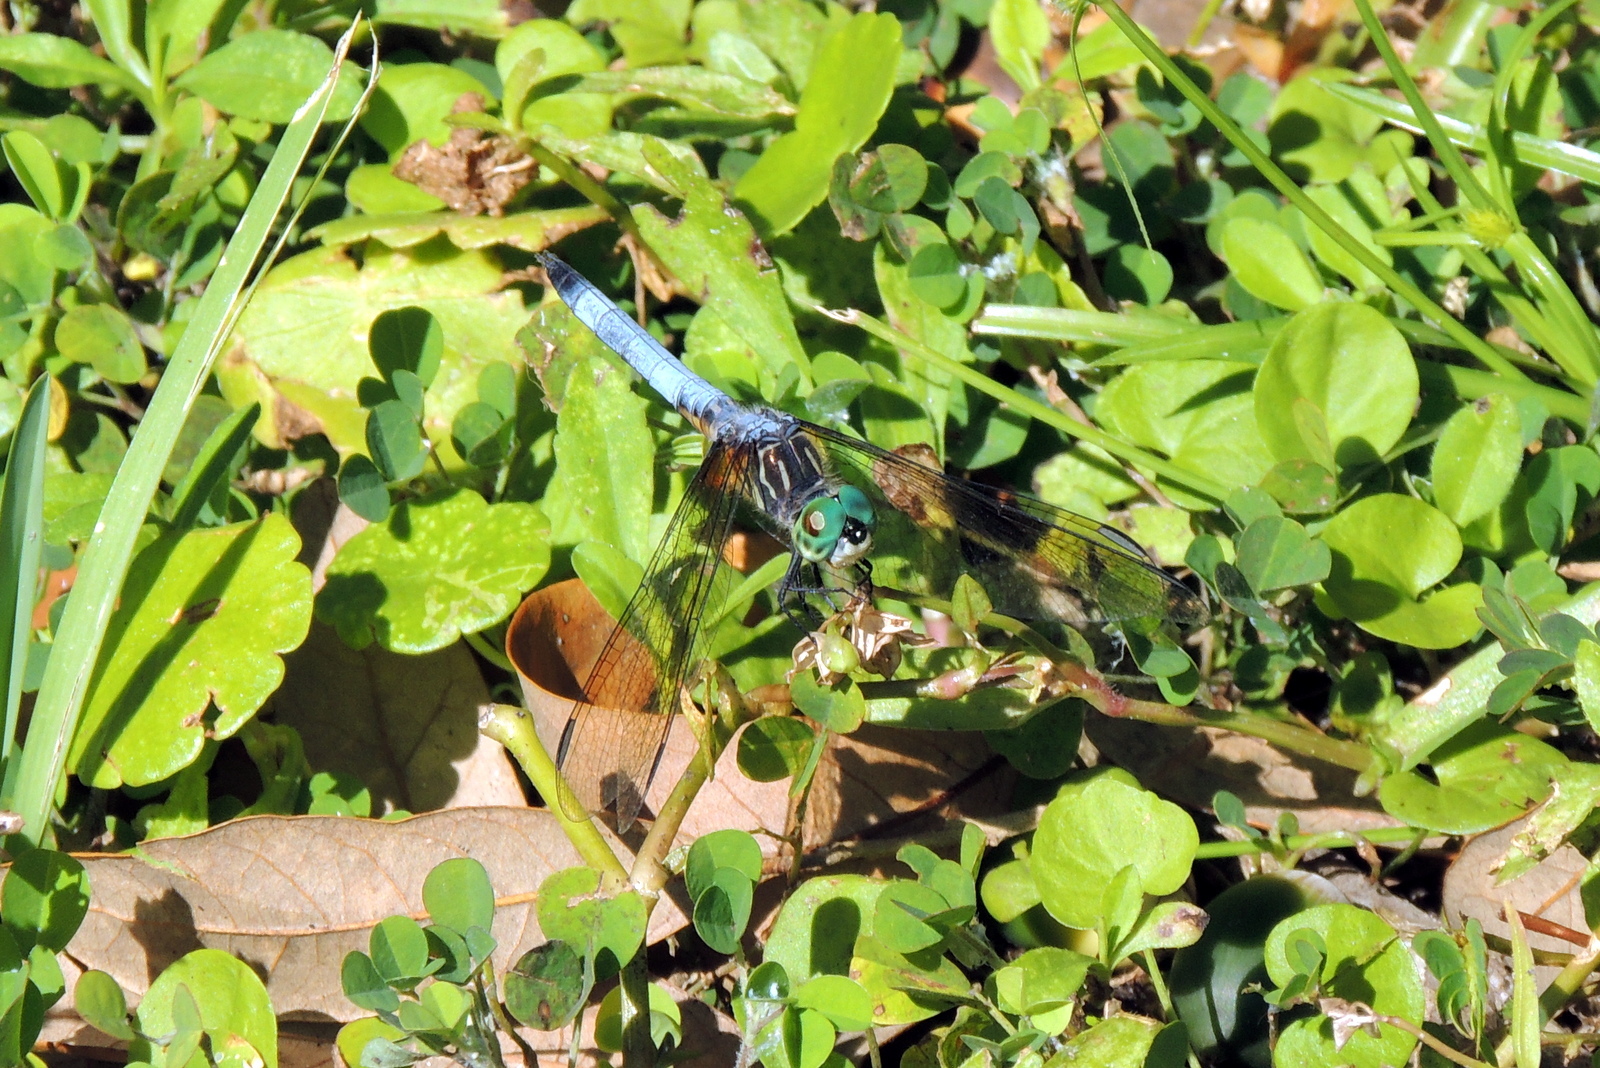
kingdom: Animalia
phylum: Arthropoda
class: Insecta
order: Odonata
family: Libellulidae
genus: Pachydiplax
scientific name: Pachydiplax longipennis
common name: Blue dasher
